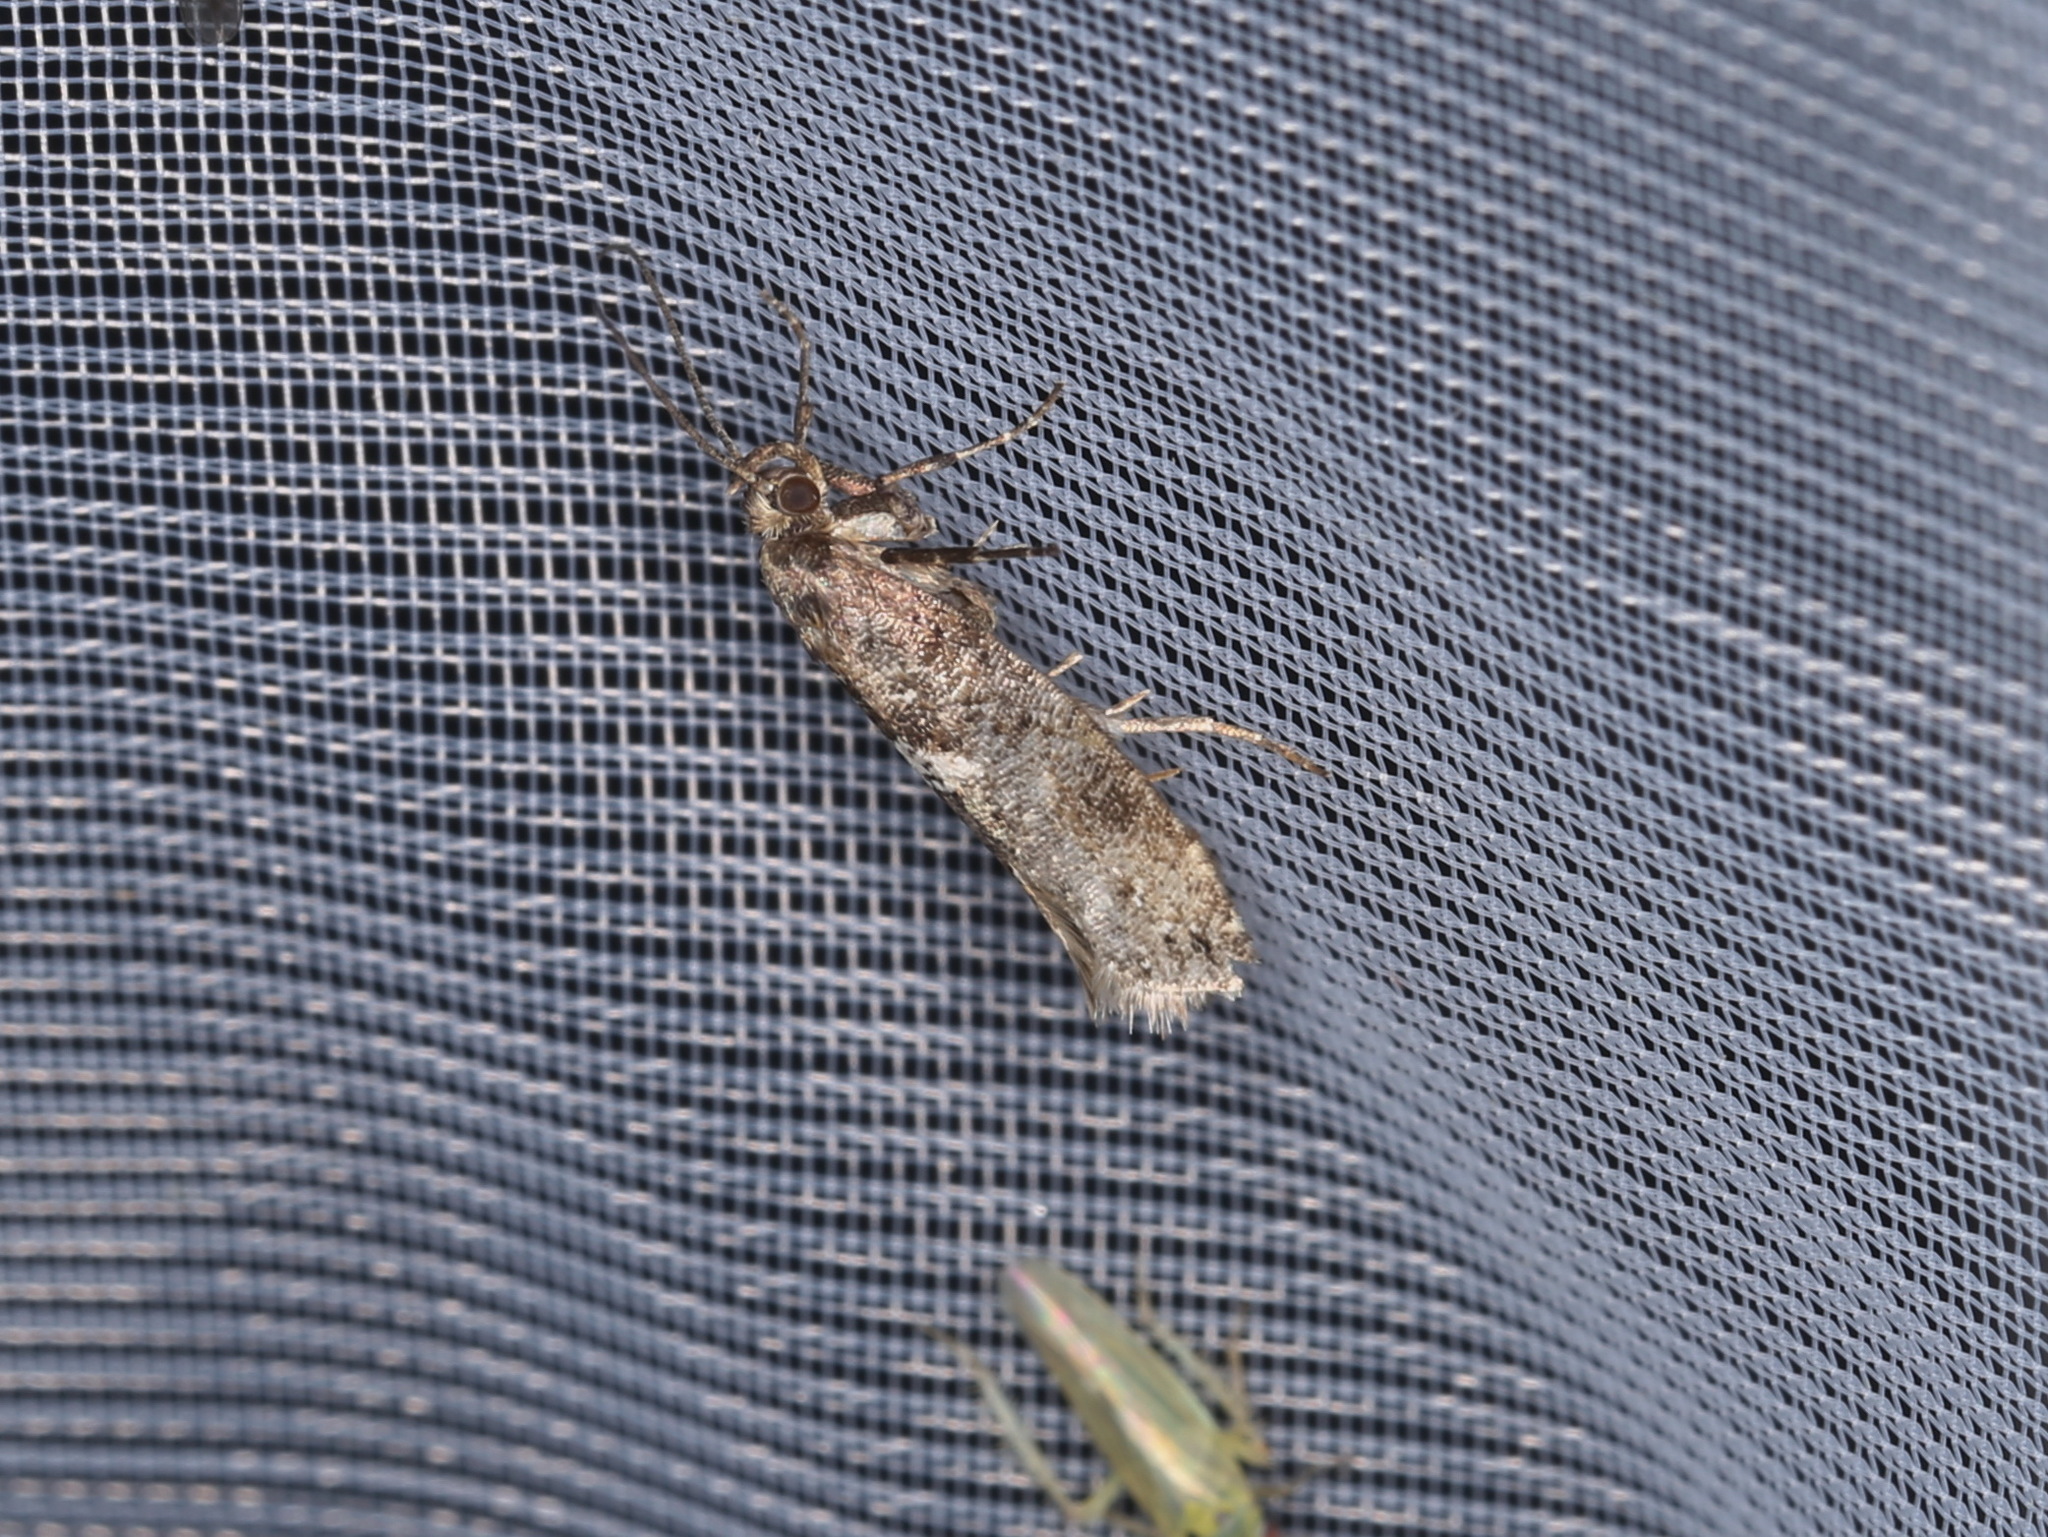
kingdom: Animalia
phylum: Arthropoda
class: Insecta
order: Lepidoptera
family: Glyphipterigidae
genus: Acrolepia
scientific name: Acrolepia assectella
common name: Onion leaf miner
